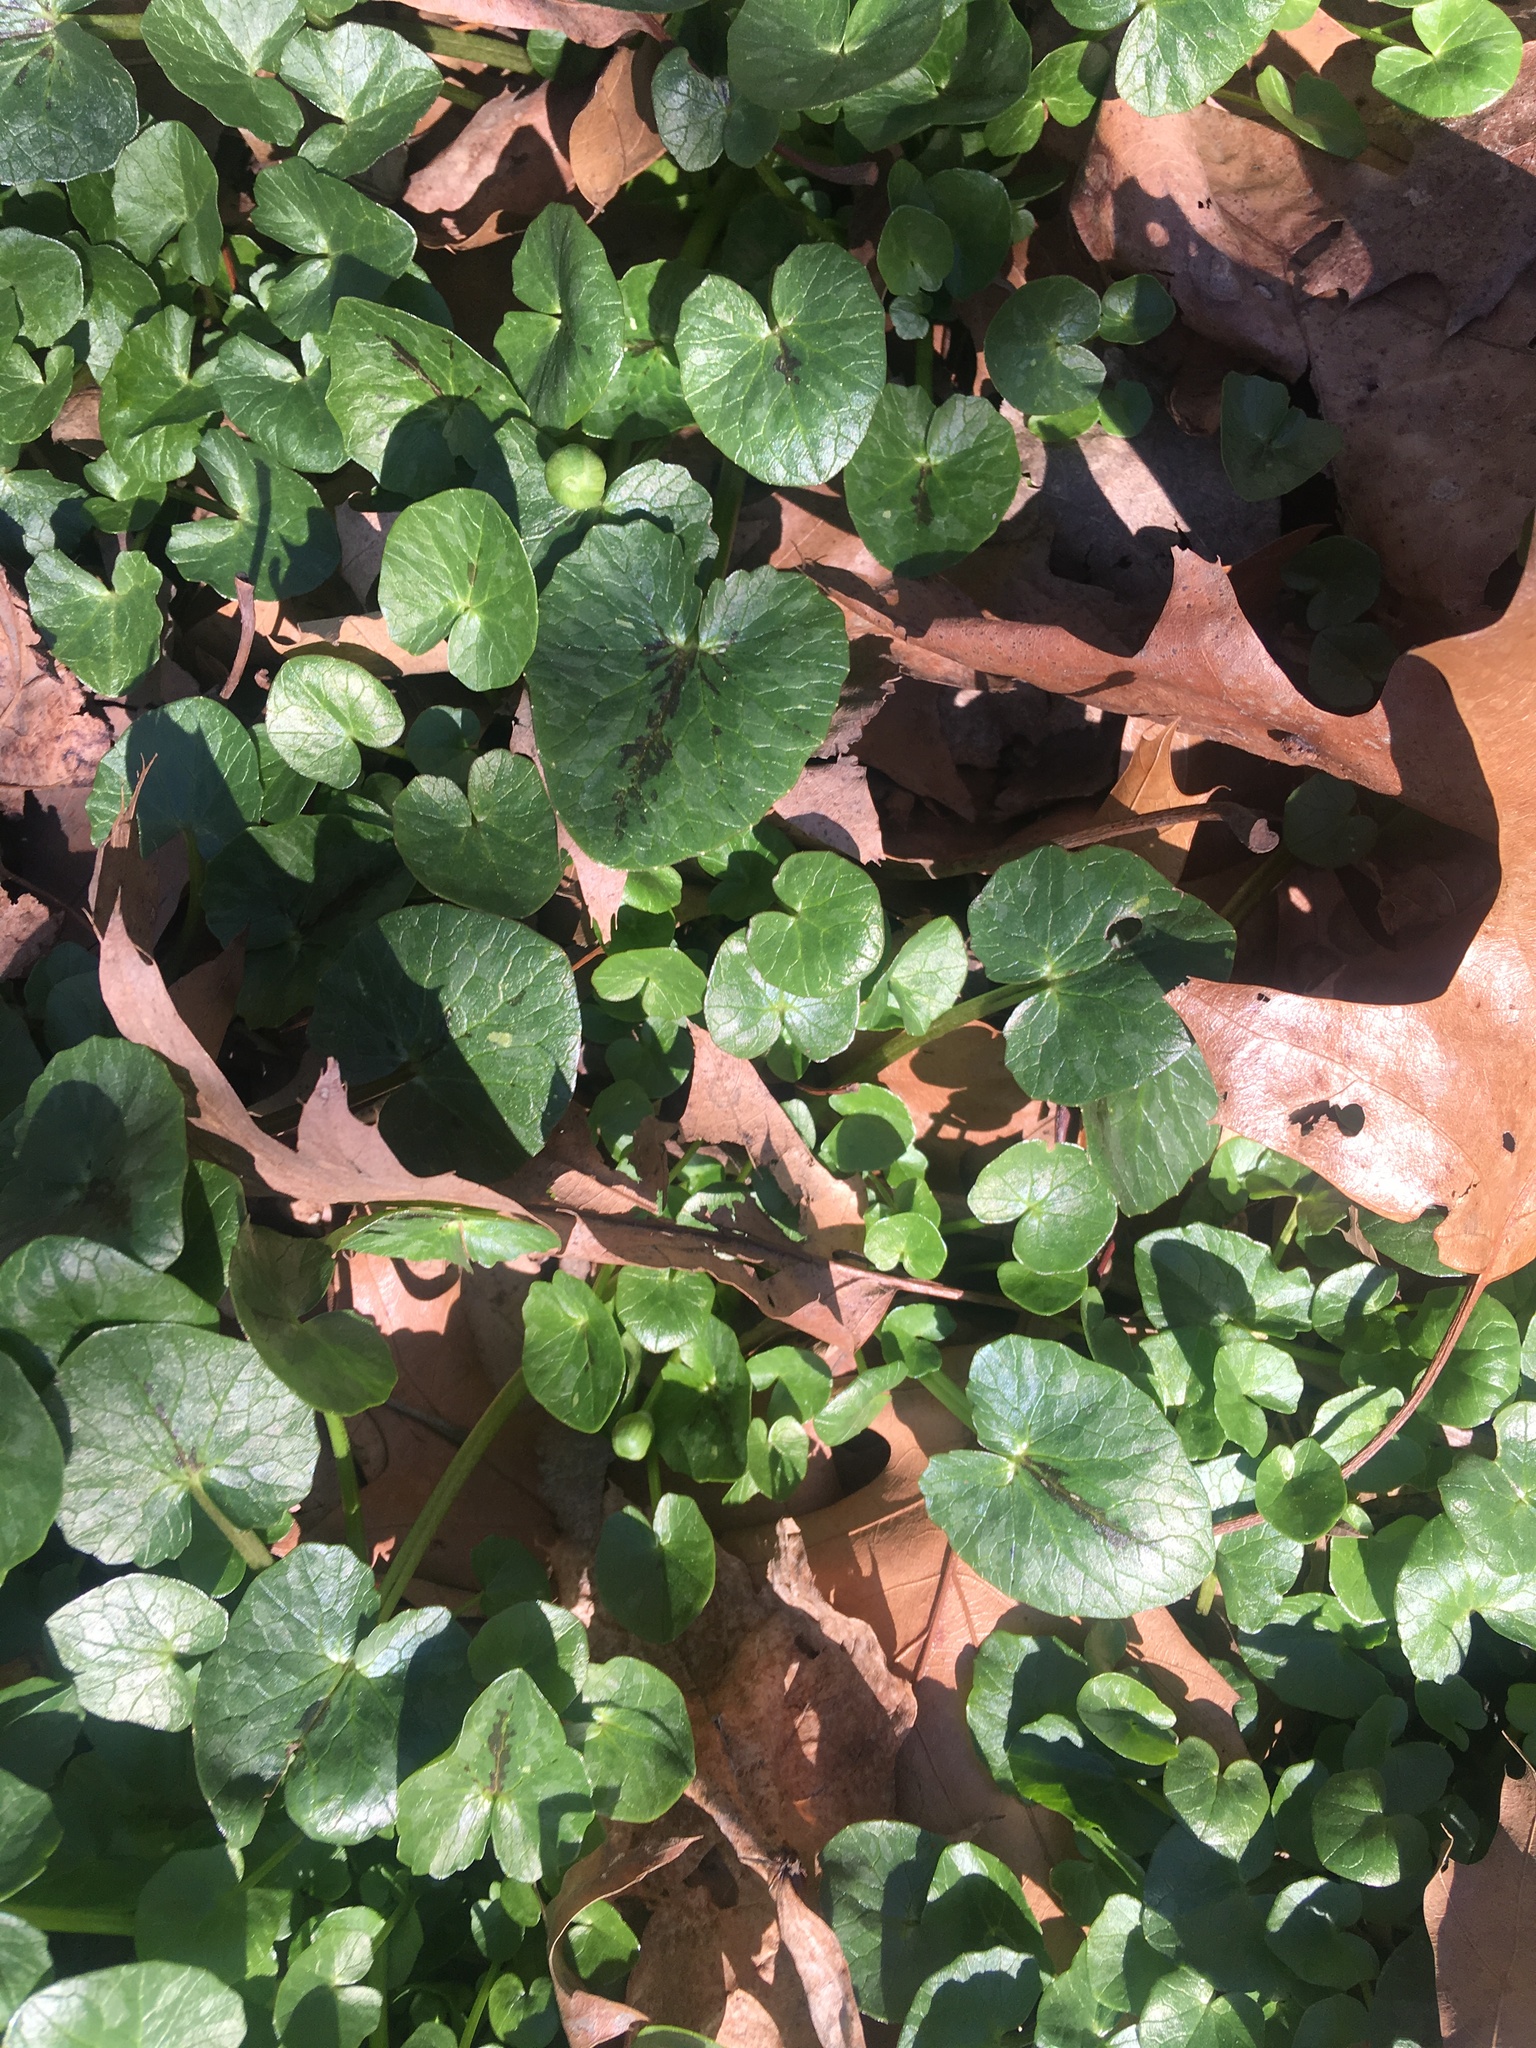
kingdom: Plantae
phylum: Tracheophyta
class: Magnoliopsida
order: Ranunculales
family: Ranunculaceae
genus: Ficaria
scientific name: Ficaria verna
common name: Lesser celandine
